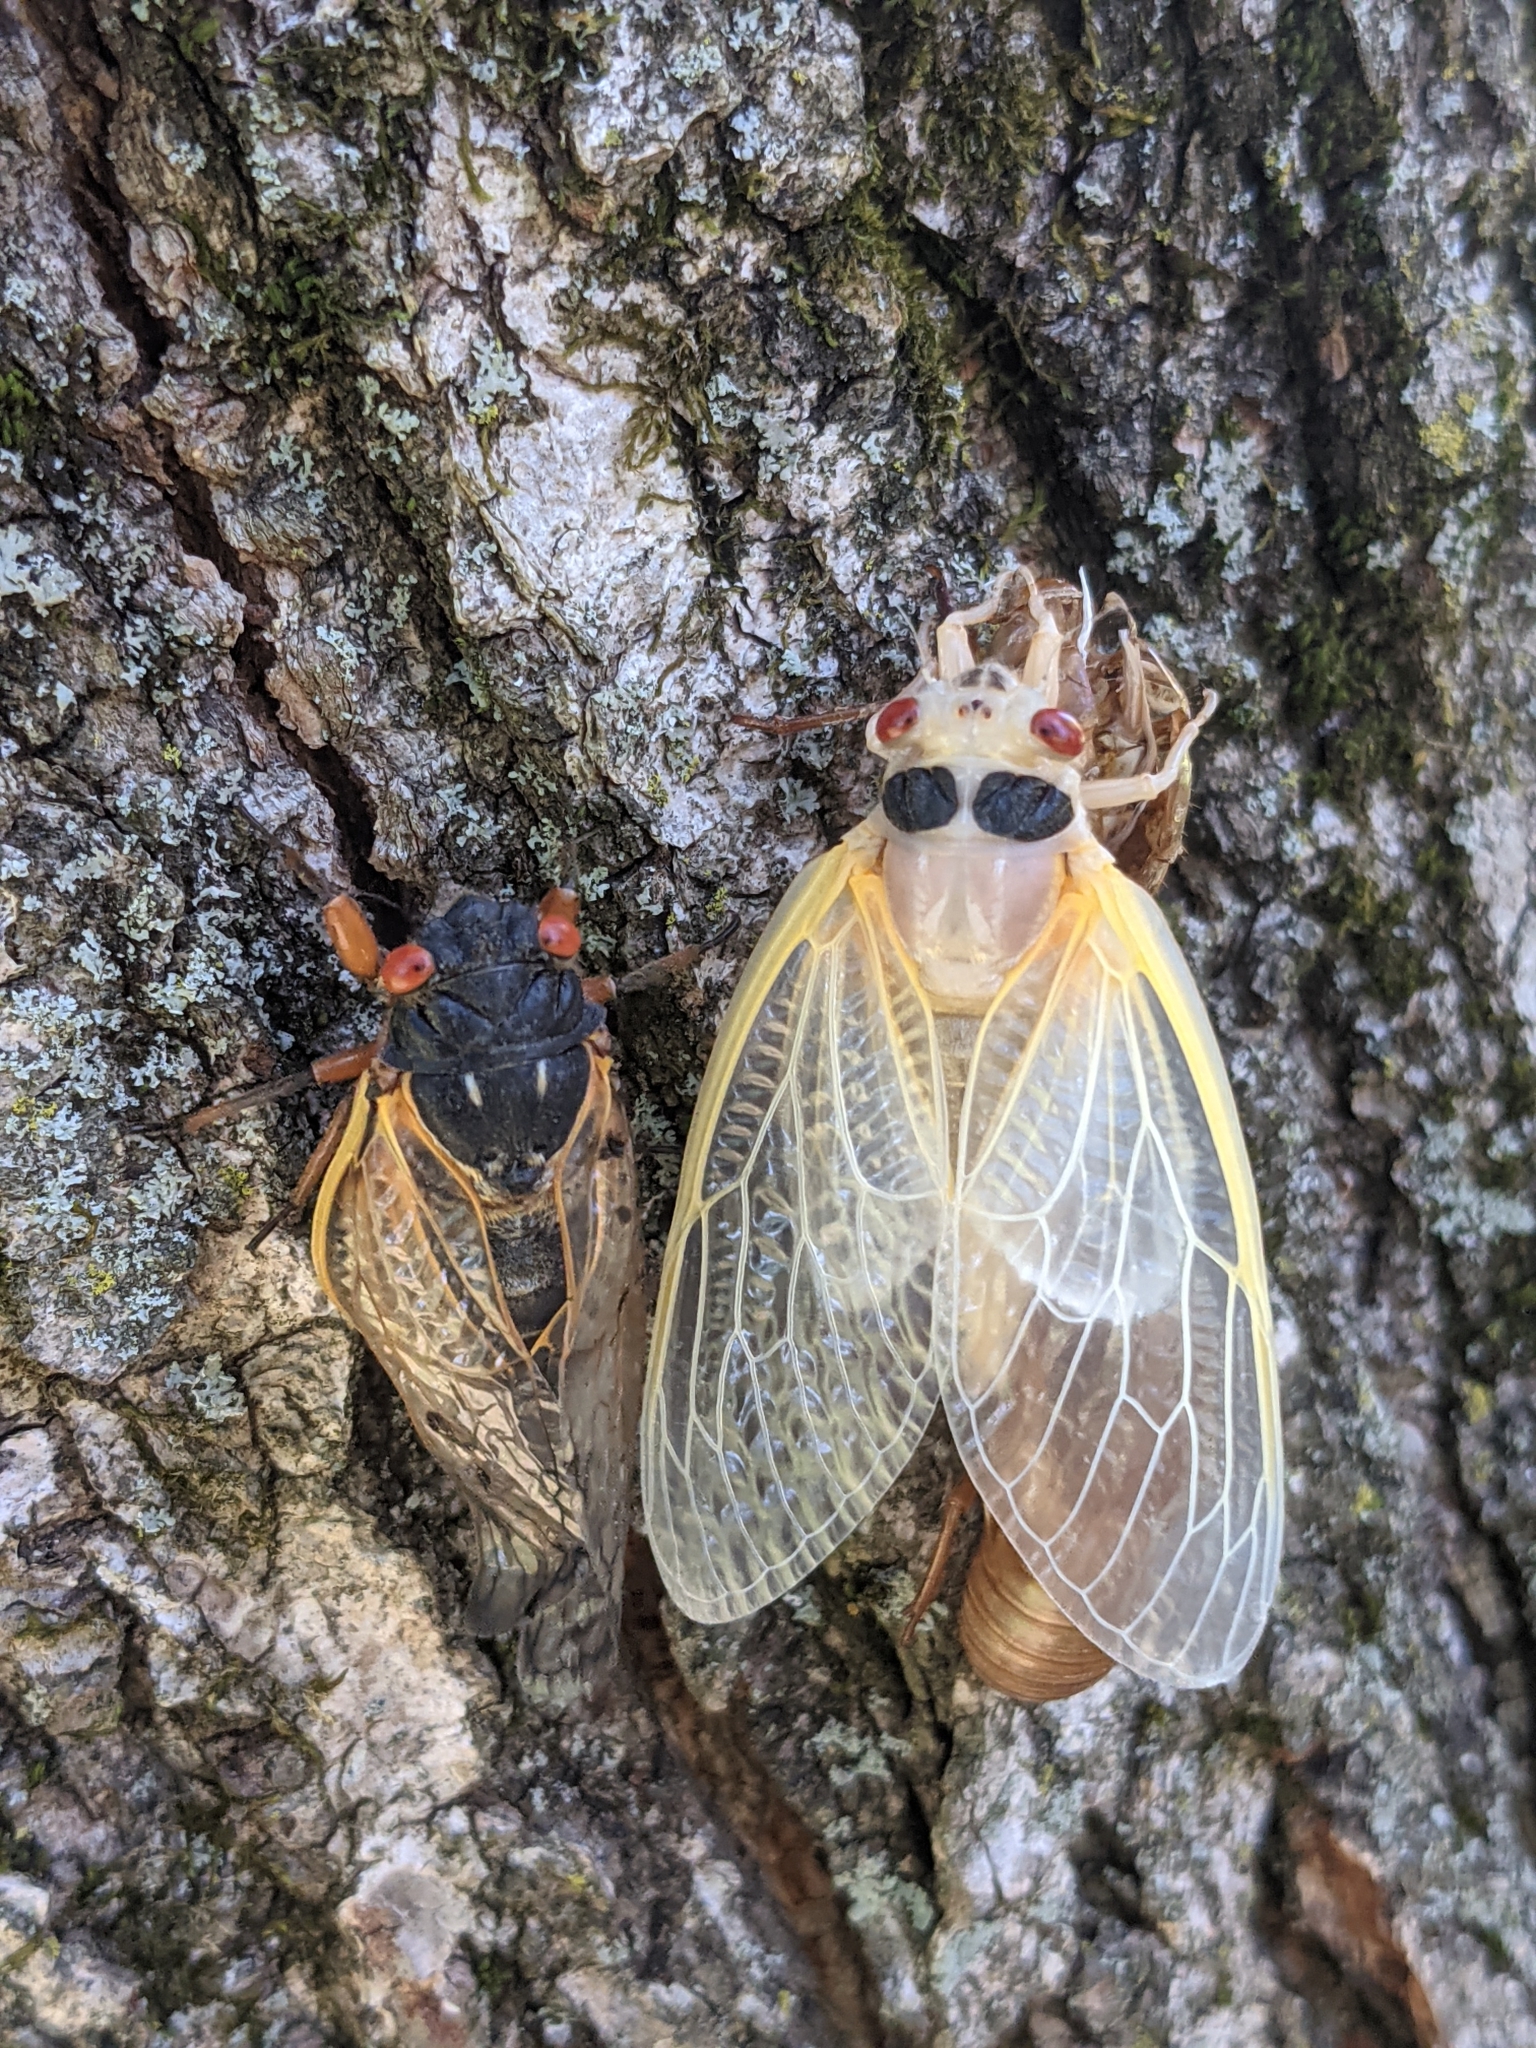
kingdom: Animalia
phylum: Arthropoda
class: Insecta
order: Hemiptera
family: Cicadidae
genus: Magicicada
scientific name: Magicicada
